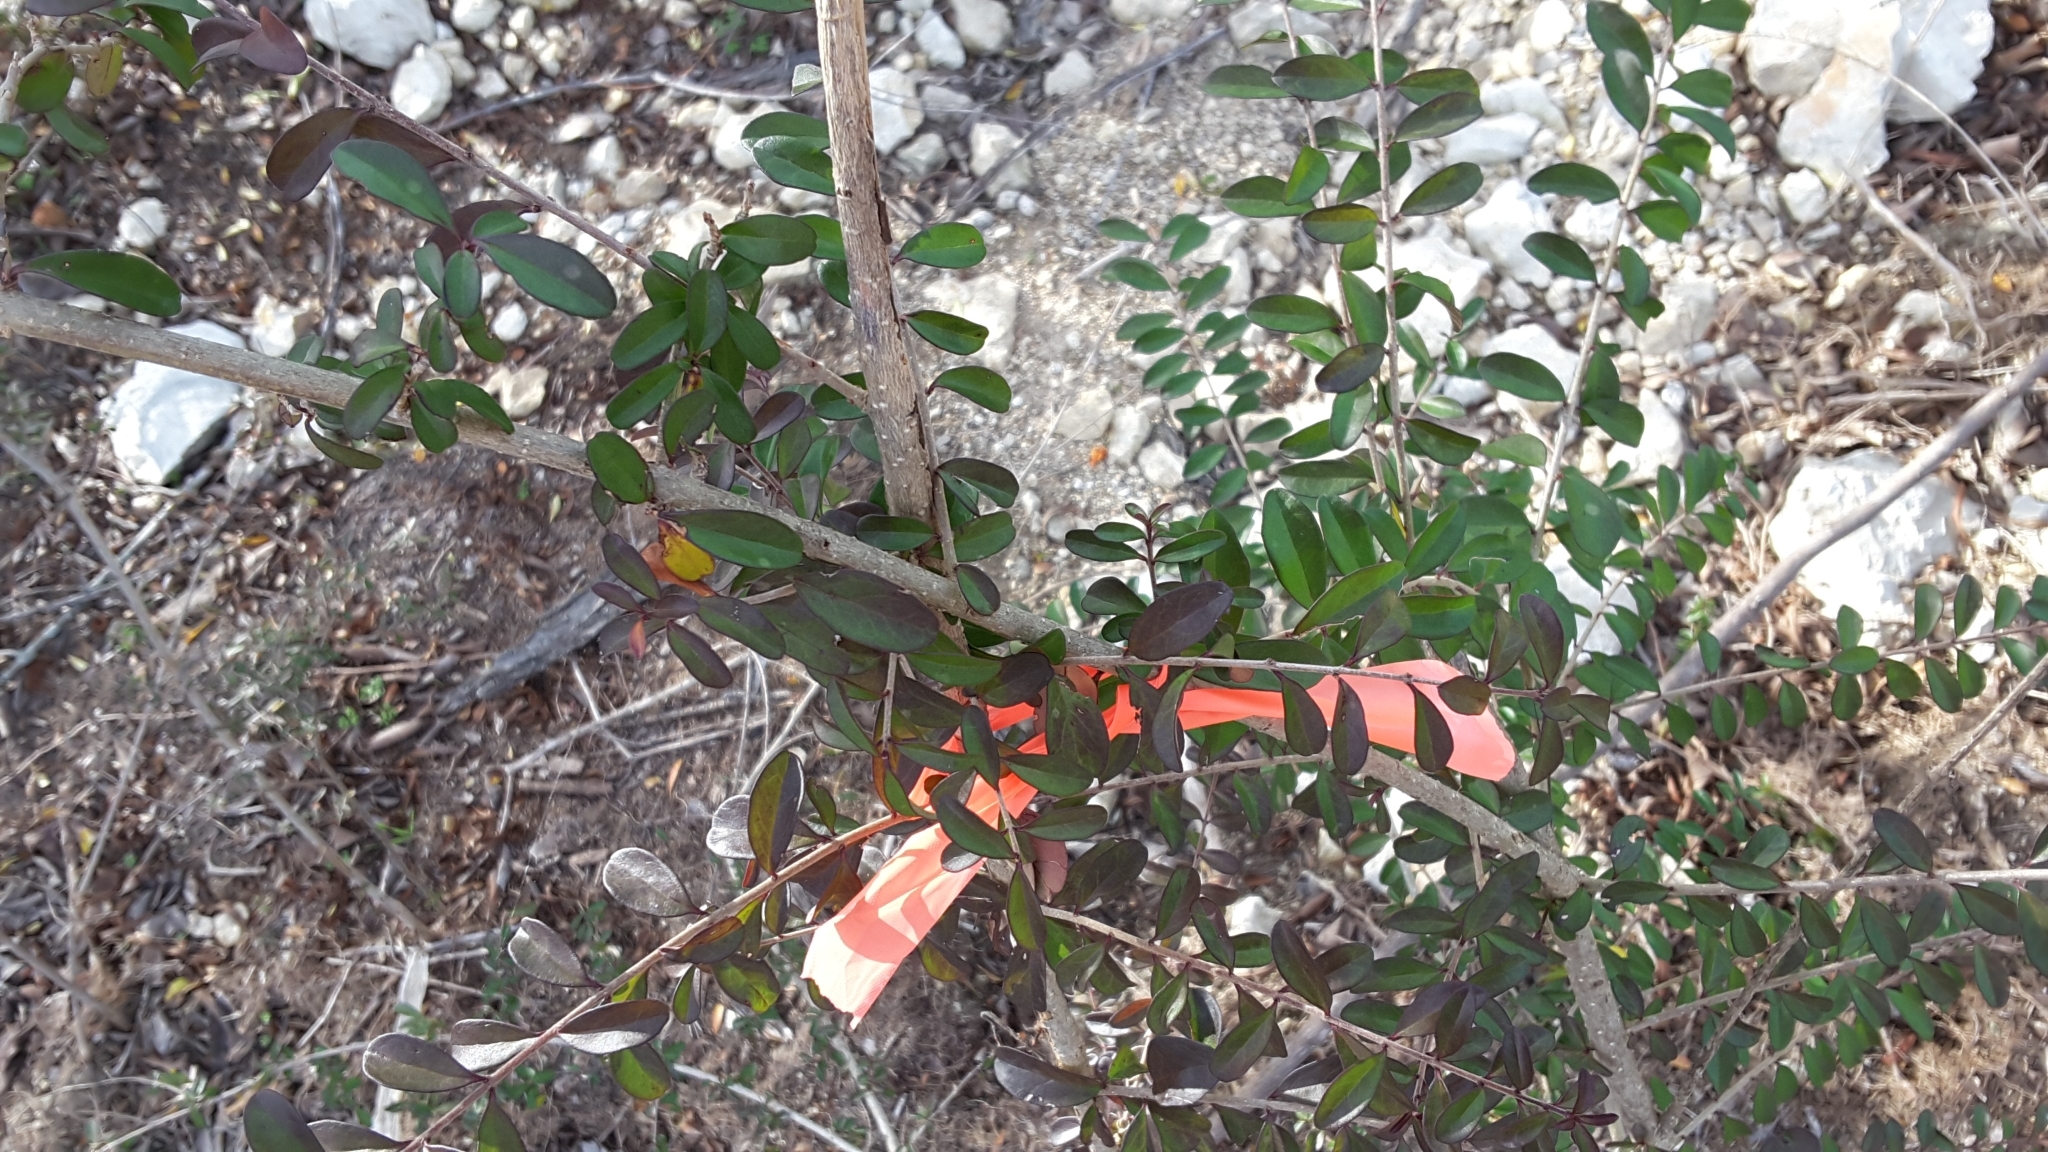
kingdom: Plantae
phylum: Tracheophyta
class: Magnoliopsida
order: Lamiales
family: Oleaceae
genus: Ligustrum
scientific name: Ligustrum quihoui
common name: Waxyleaf privet
